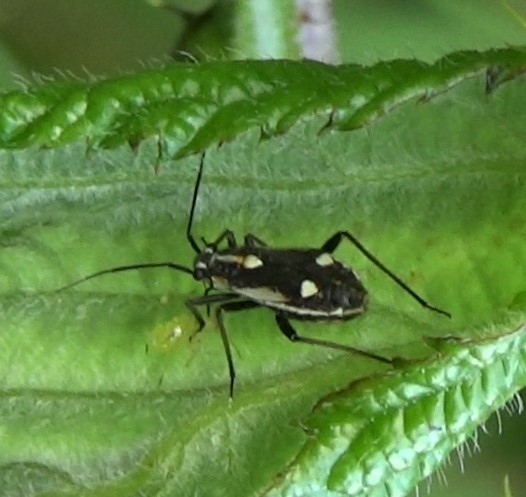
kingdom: Animalia
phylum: Arthropoda
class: Insecta
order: Hemiptera
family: Miridae
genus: Capsodes
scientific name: Capsodes sulcatus
